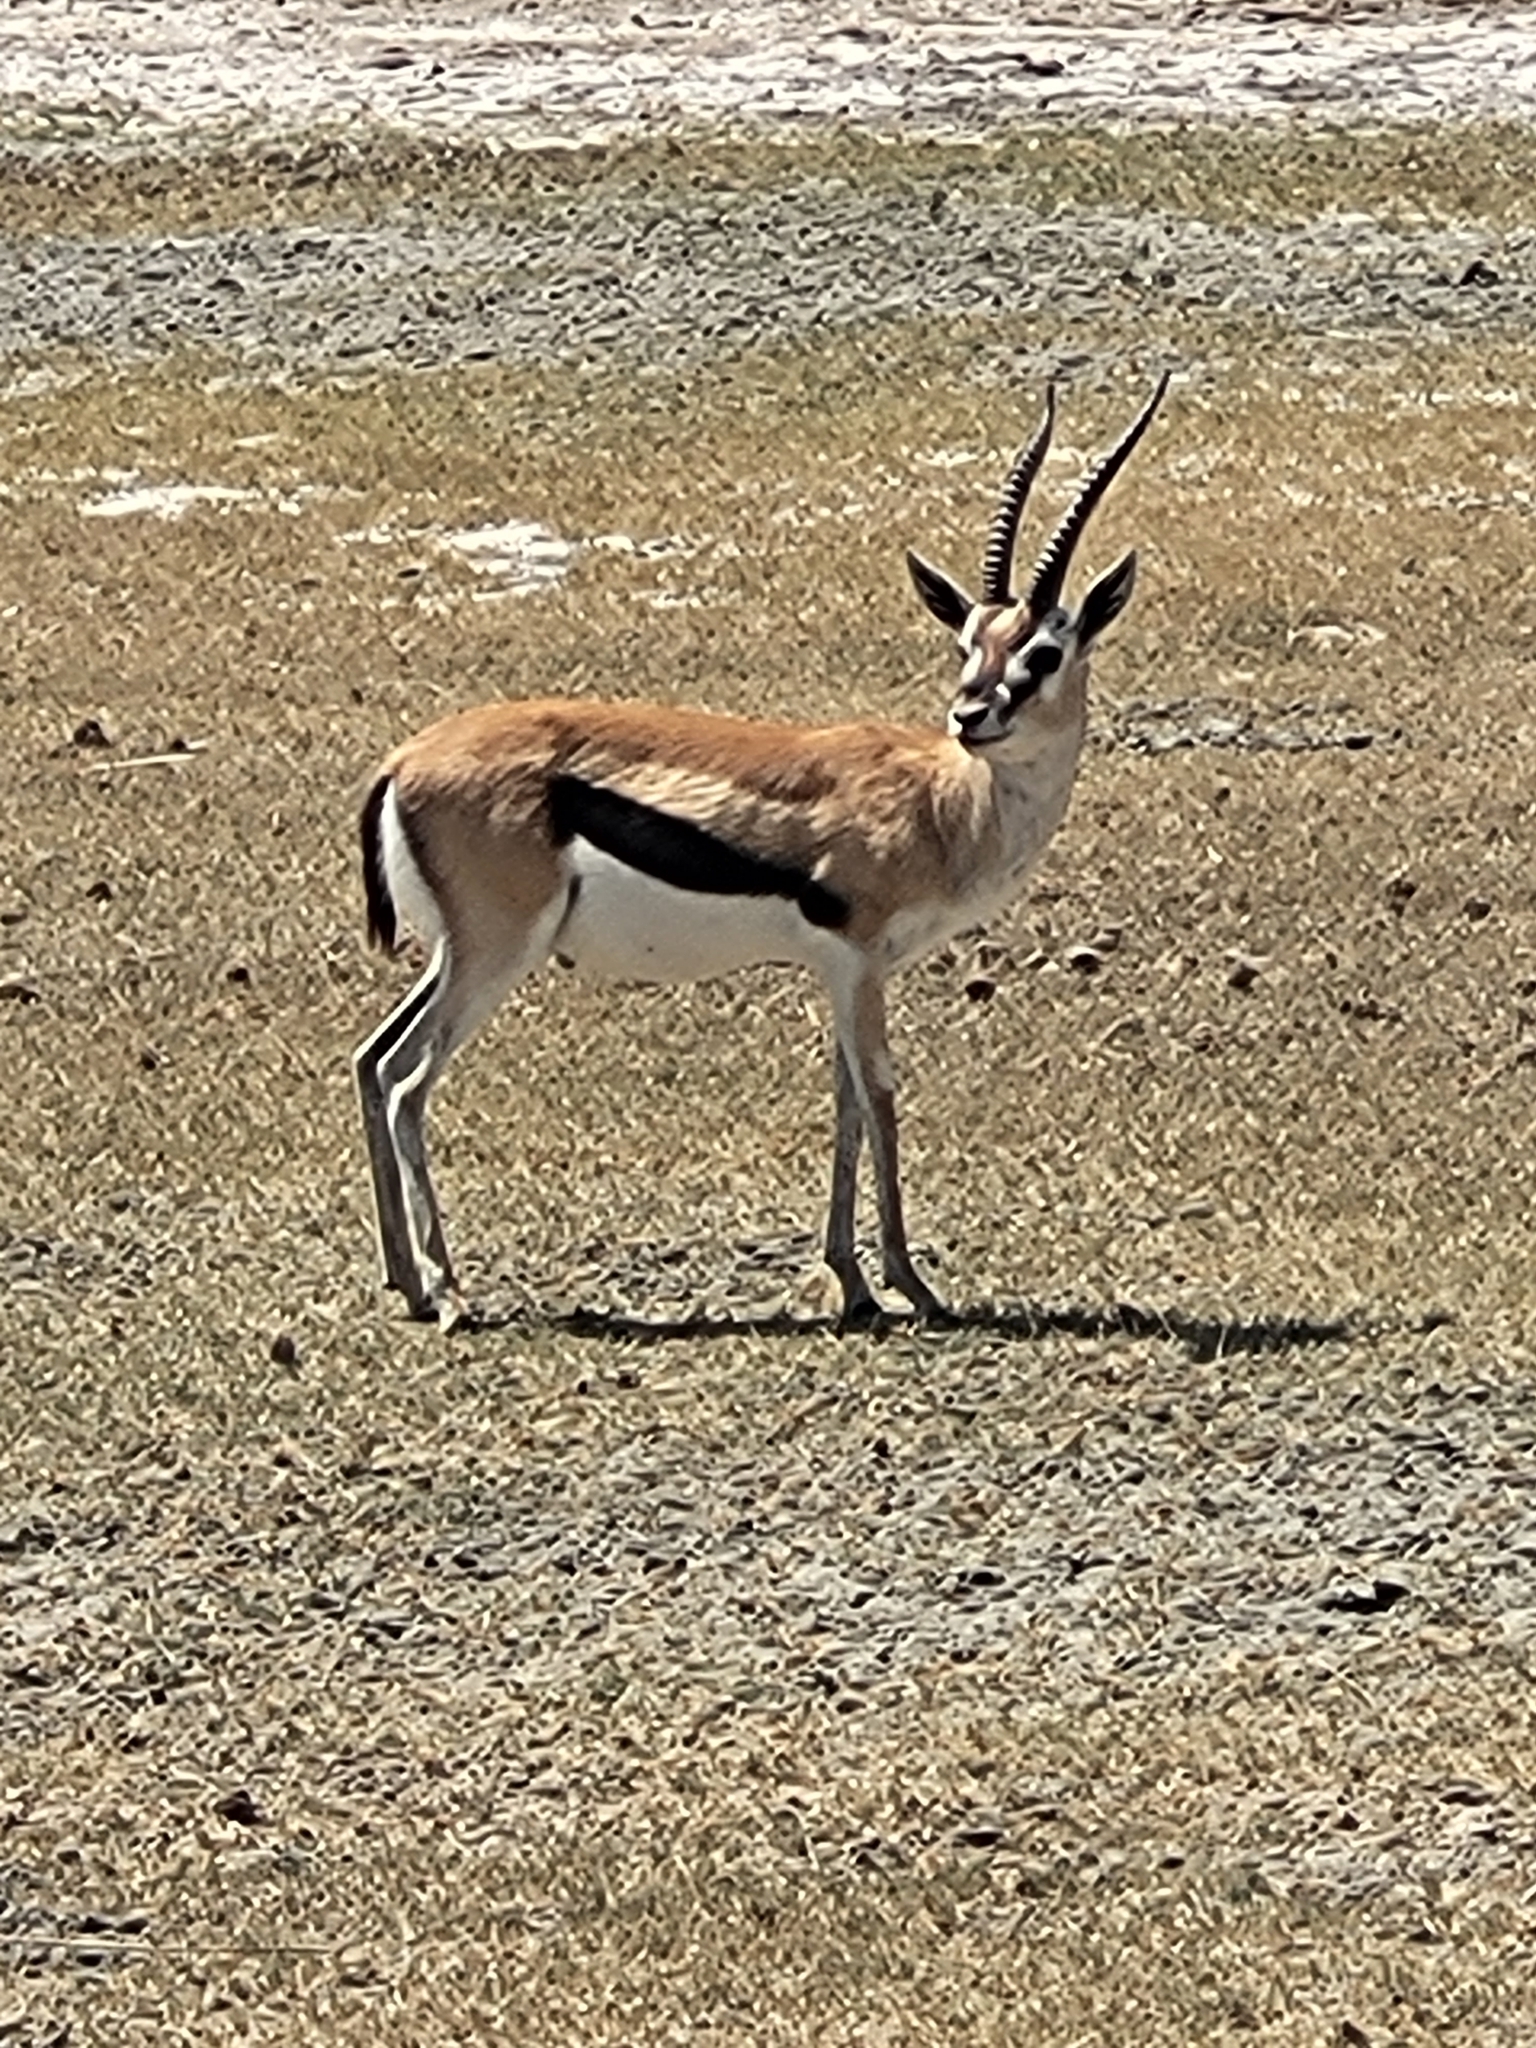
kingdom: Animalia
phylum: Chordata
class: Mammalia
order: Artiodactyla
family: Bovidae
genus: Eudorcas
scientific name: Eudorcas thomsonii
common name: Thomson's gazelle
